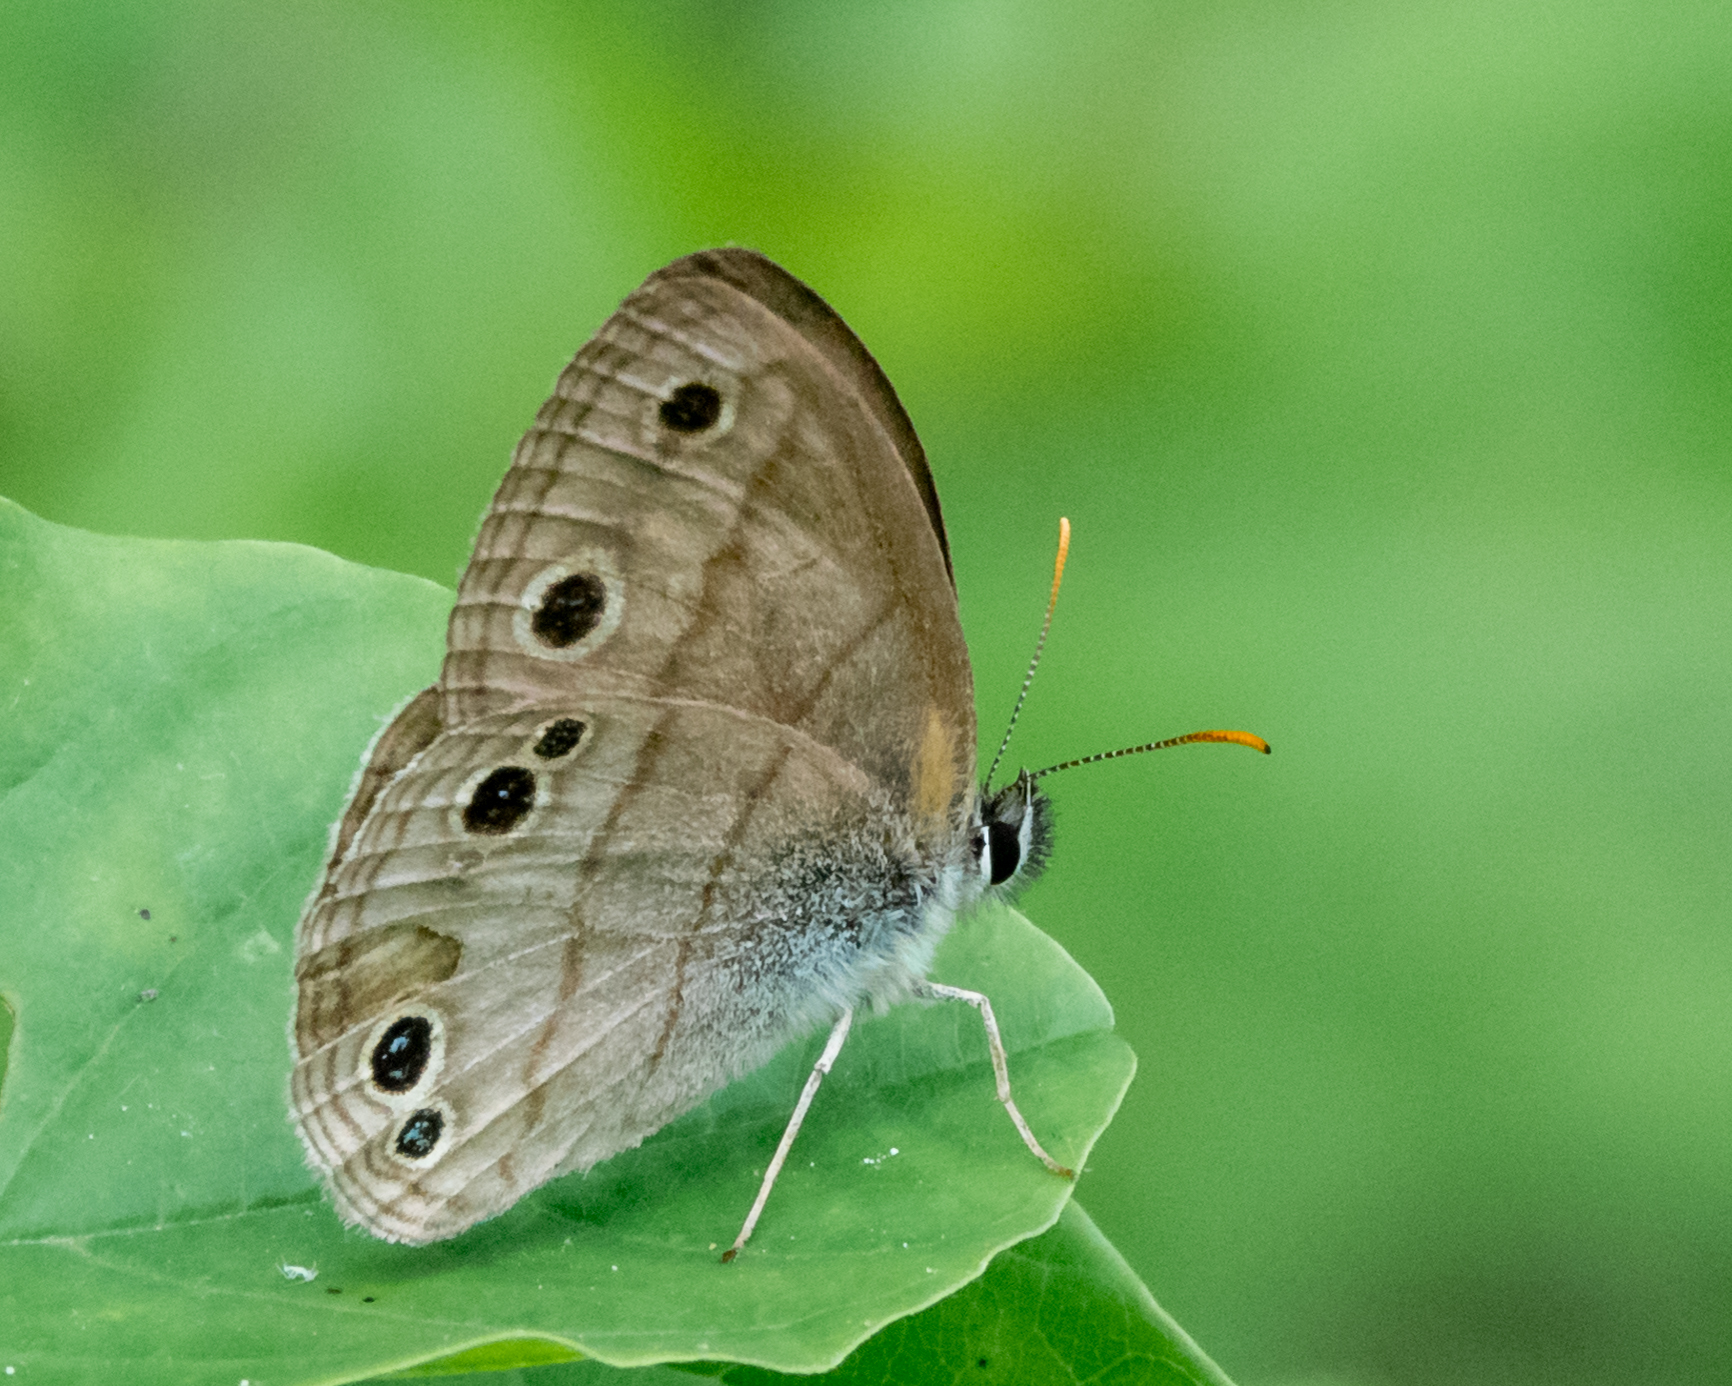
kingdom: Animalia
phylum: Arthropoda
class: Insecta
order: Lepidoptera
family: Nymphalidae
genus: Euptychia
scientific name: Euptychia cymela
